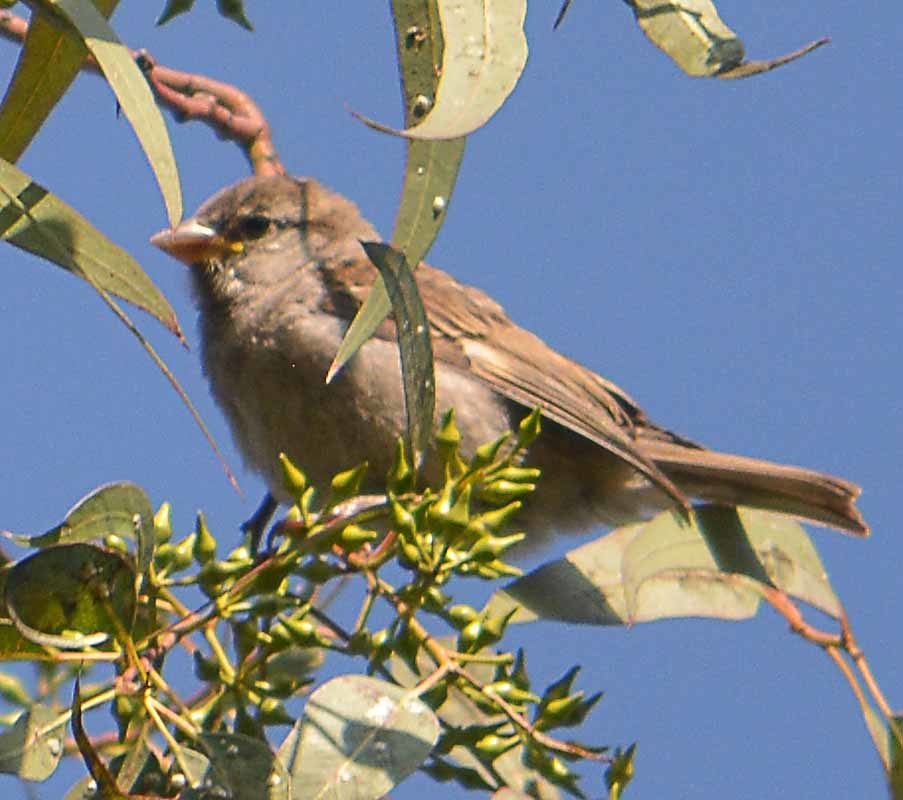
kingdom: Animalia
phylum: Chordata
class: Aves
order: Passeriformes
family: Passeridae
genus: Passer
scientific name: Passer domesticus
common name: House sparrow
